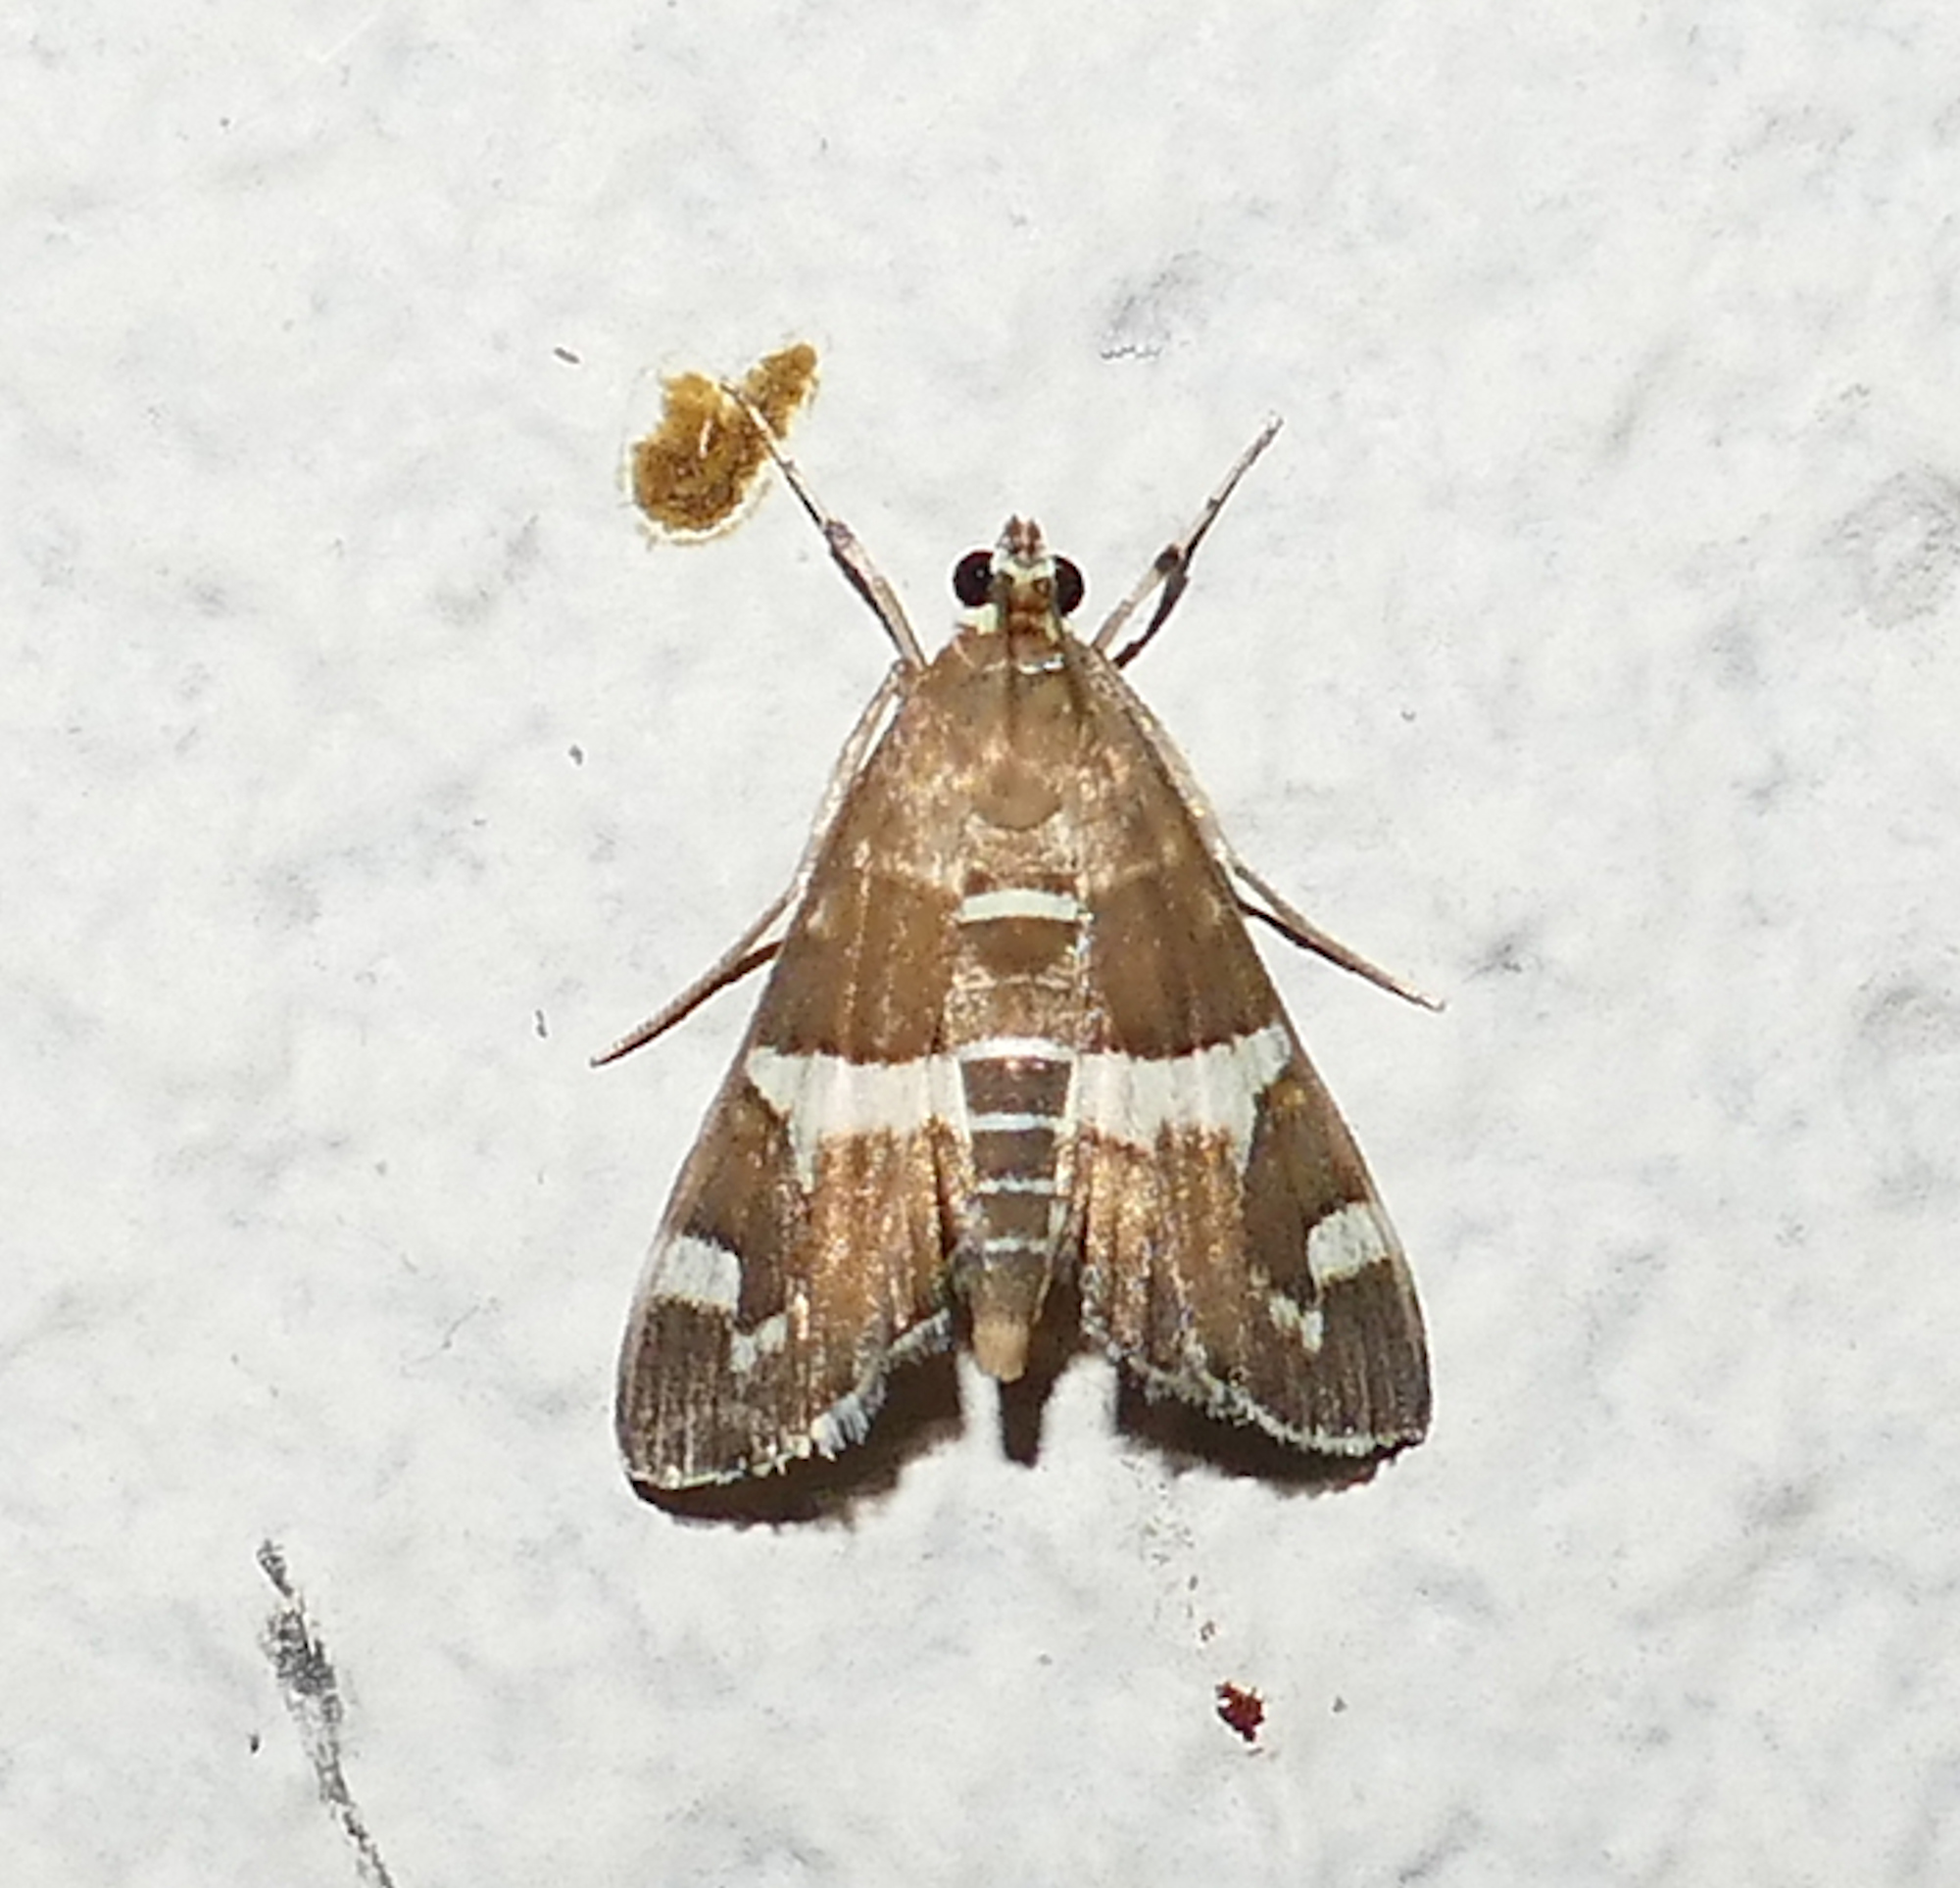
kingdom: Animalia
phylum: Arthropoda
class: Insecta
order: Lepidoptera
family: Crambidae
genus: Spoladea
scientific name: Spoladea recurvalis
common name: Beet webworm moth
